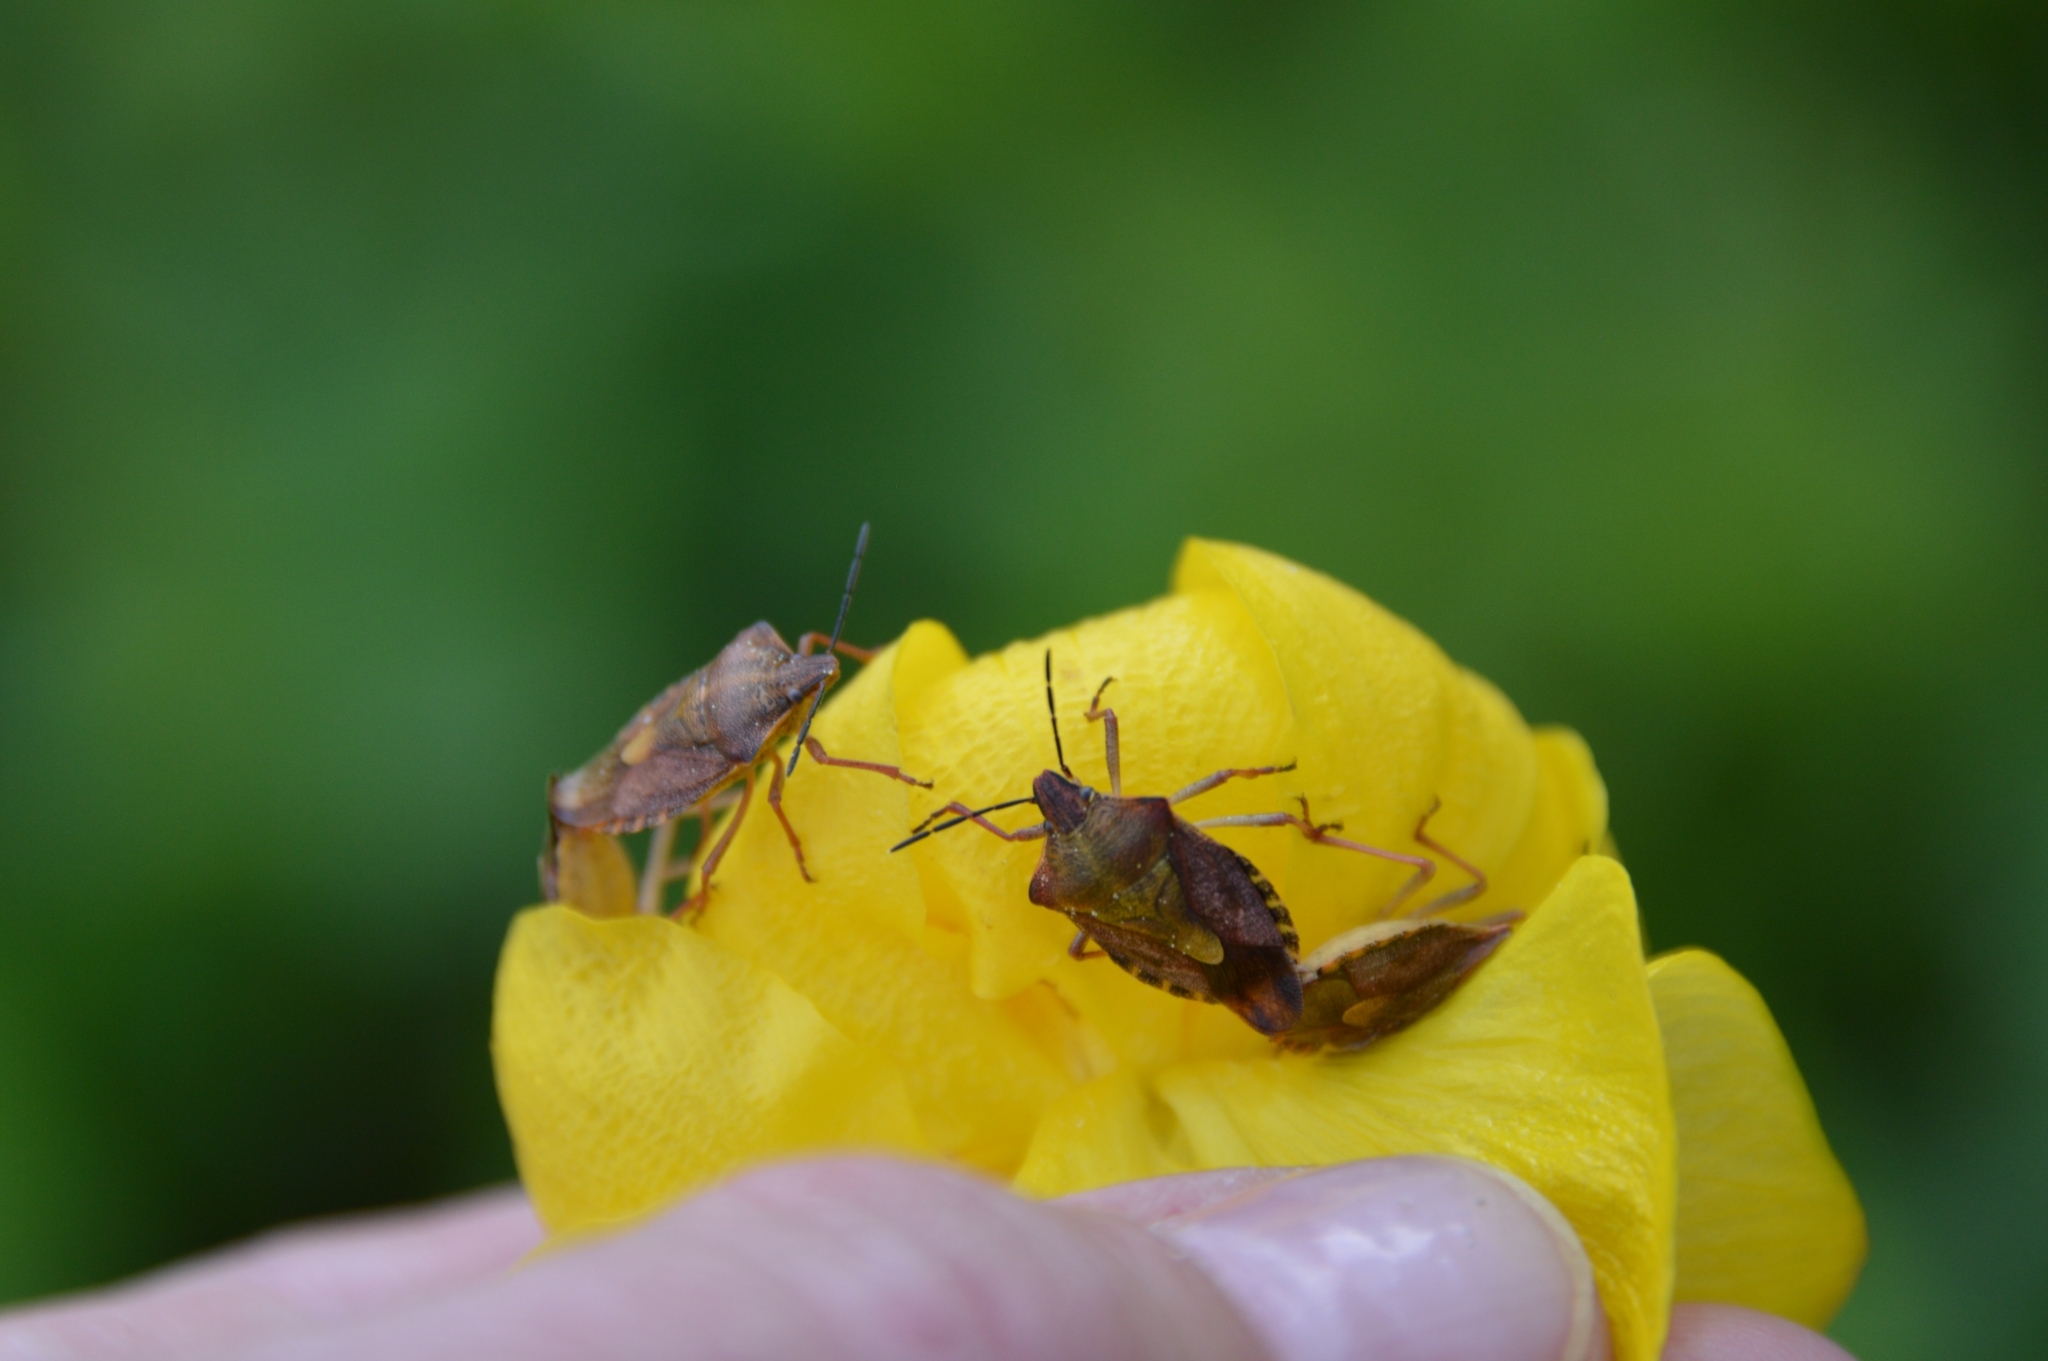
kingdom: Animalia
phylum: Arthropoda
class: Insecta
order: Hemiptera
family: Pentatomidae
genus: Carpocoris
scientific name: Carpocoris purpureipennis
